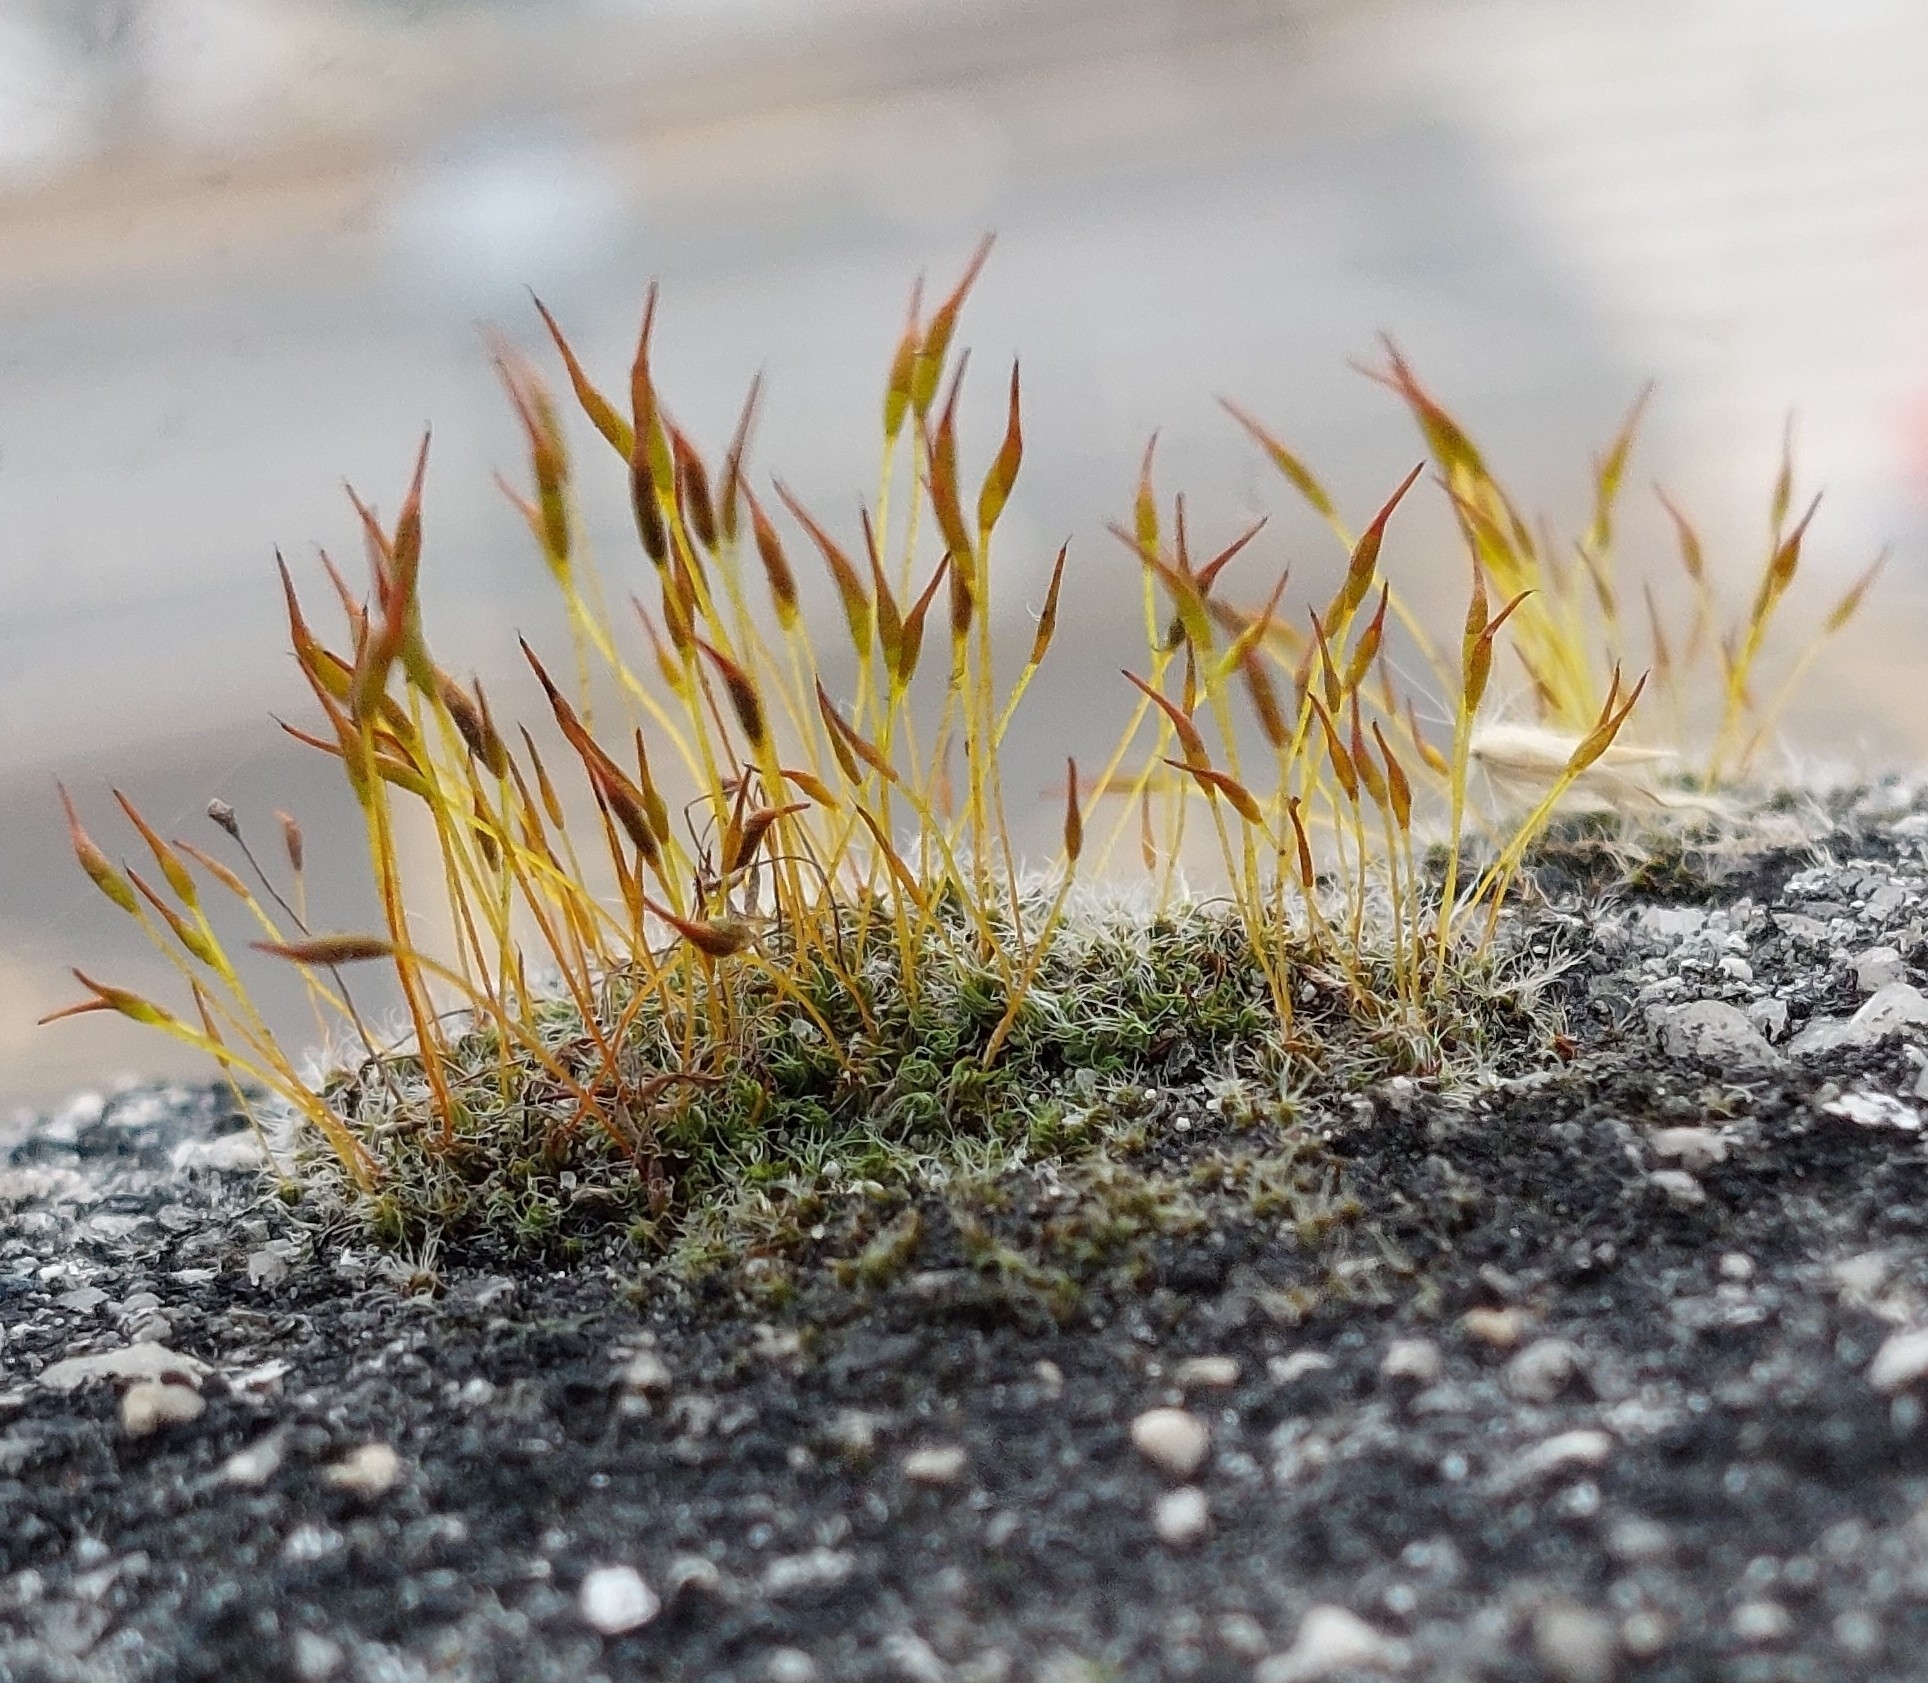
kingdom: Plantae
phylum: Bryophyta
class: Bryopsida
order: Pottiales
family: Pottiaceae
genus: Tortula
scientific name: Tortula muralis
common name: Wall screw-moss
